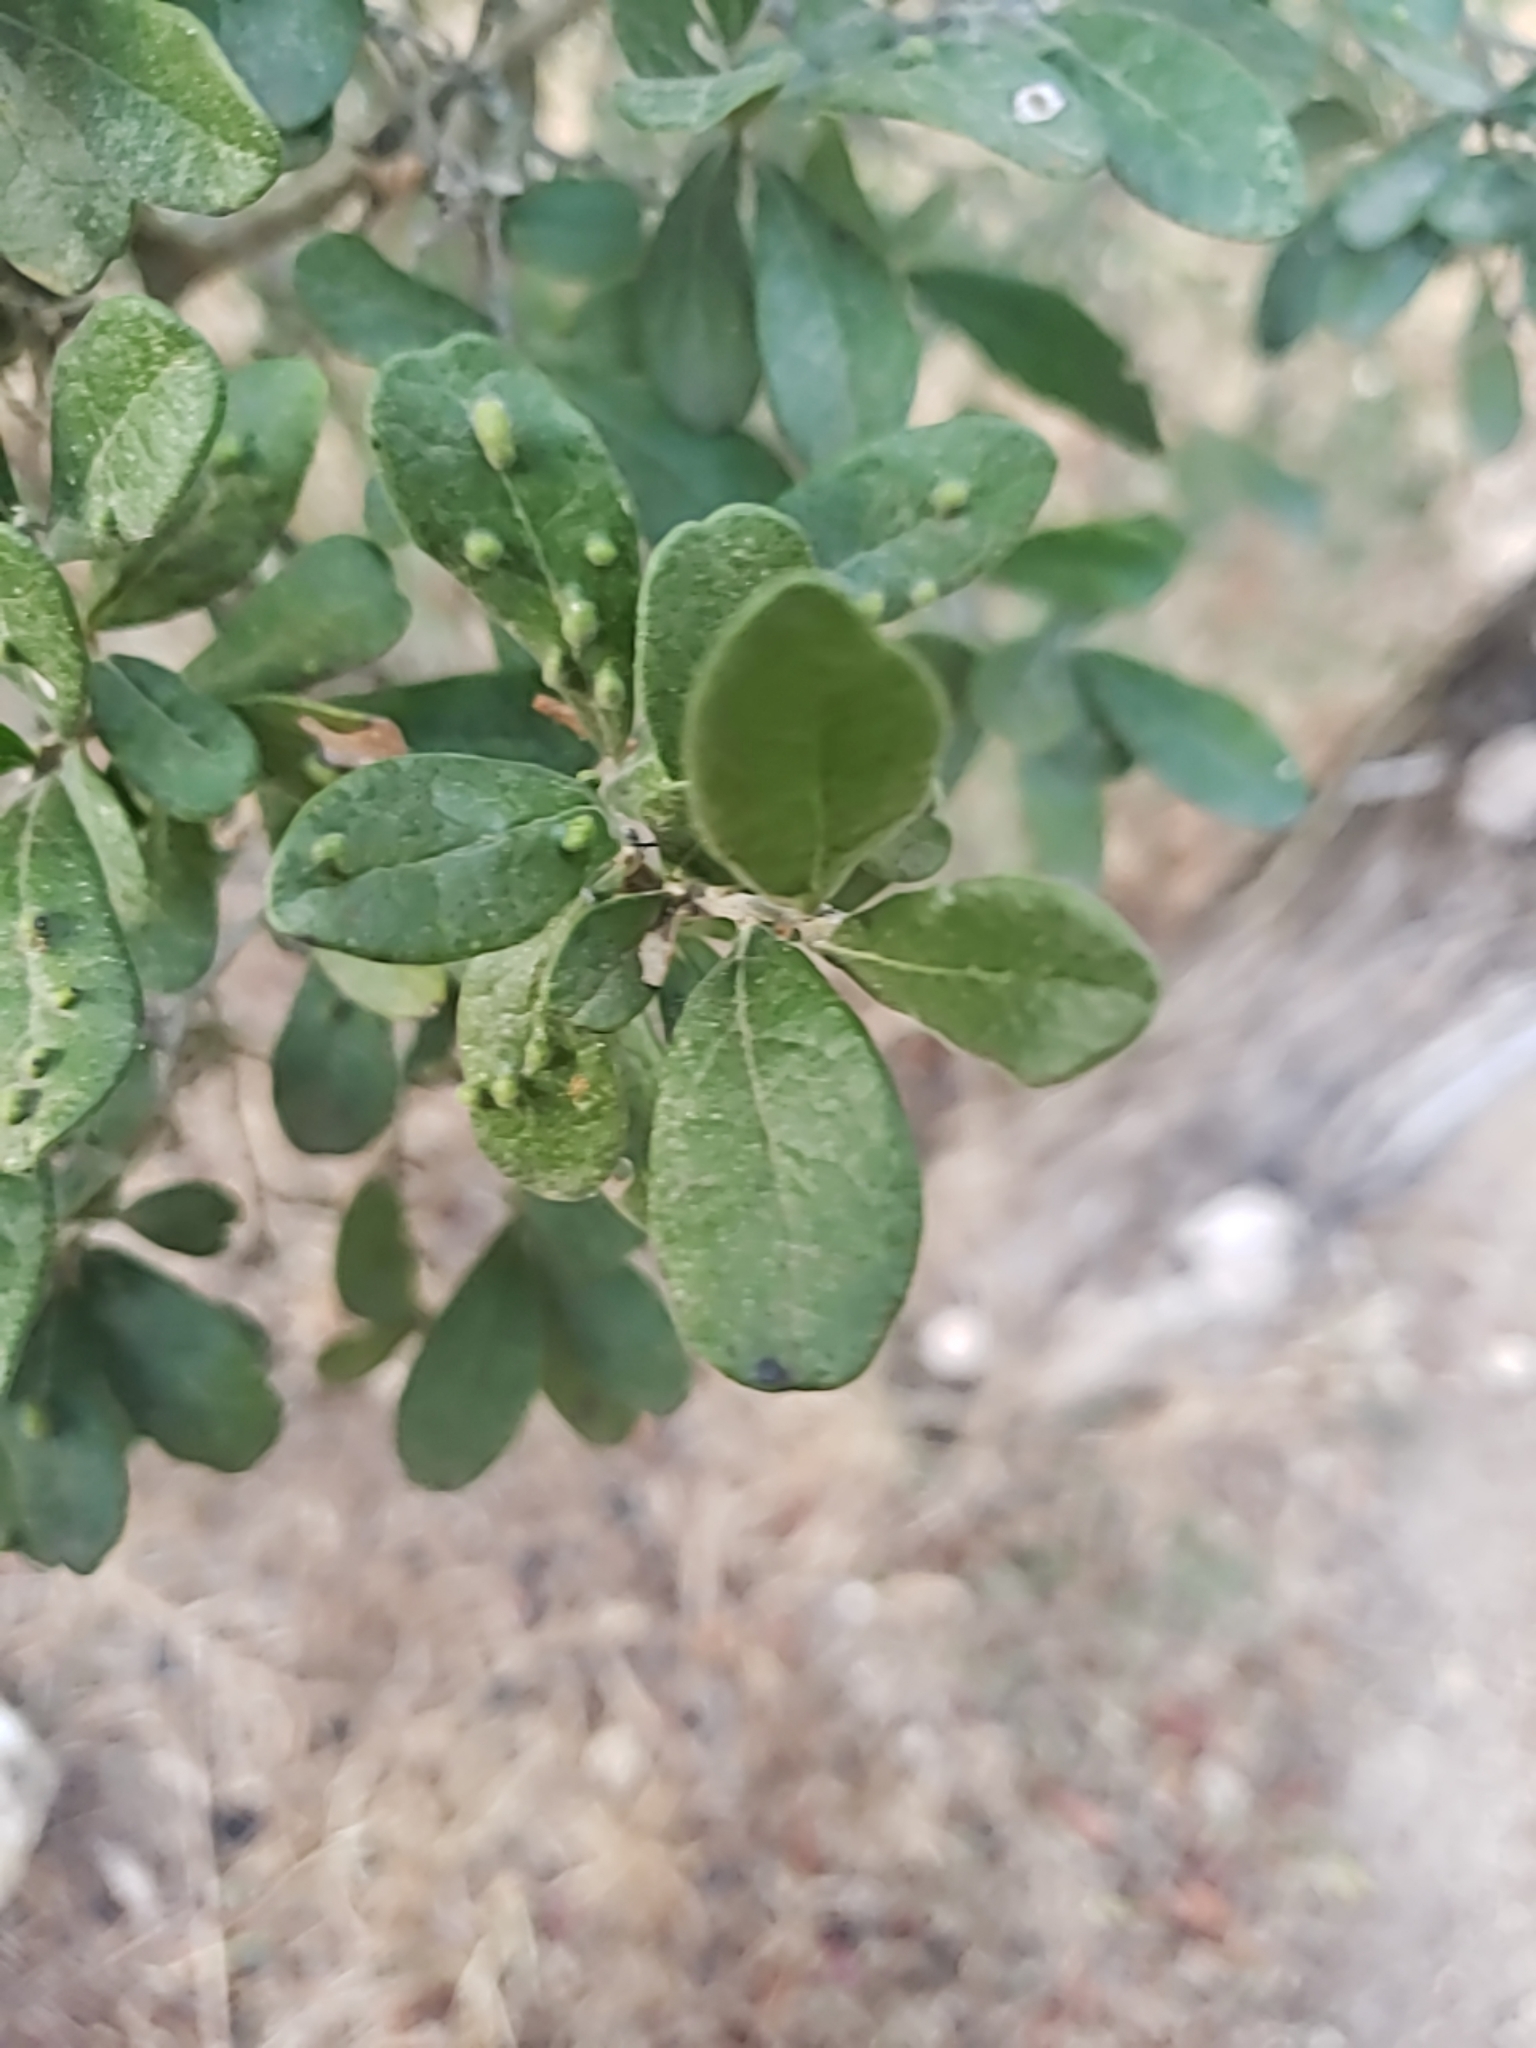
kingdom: Plantae
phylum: Tracheophyta
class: Magnoliopsida
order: Ericales
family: Ebenaceae
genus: Diospyros
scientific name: Diospyros texana
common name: Texas persimmon
